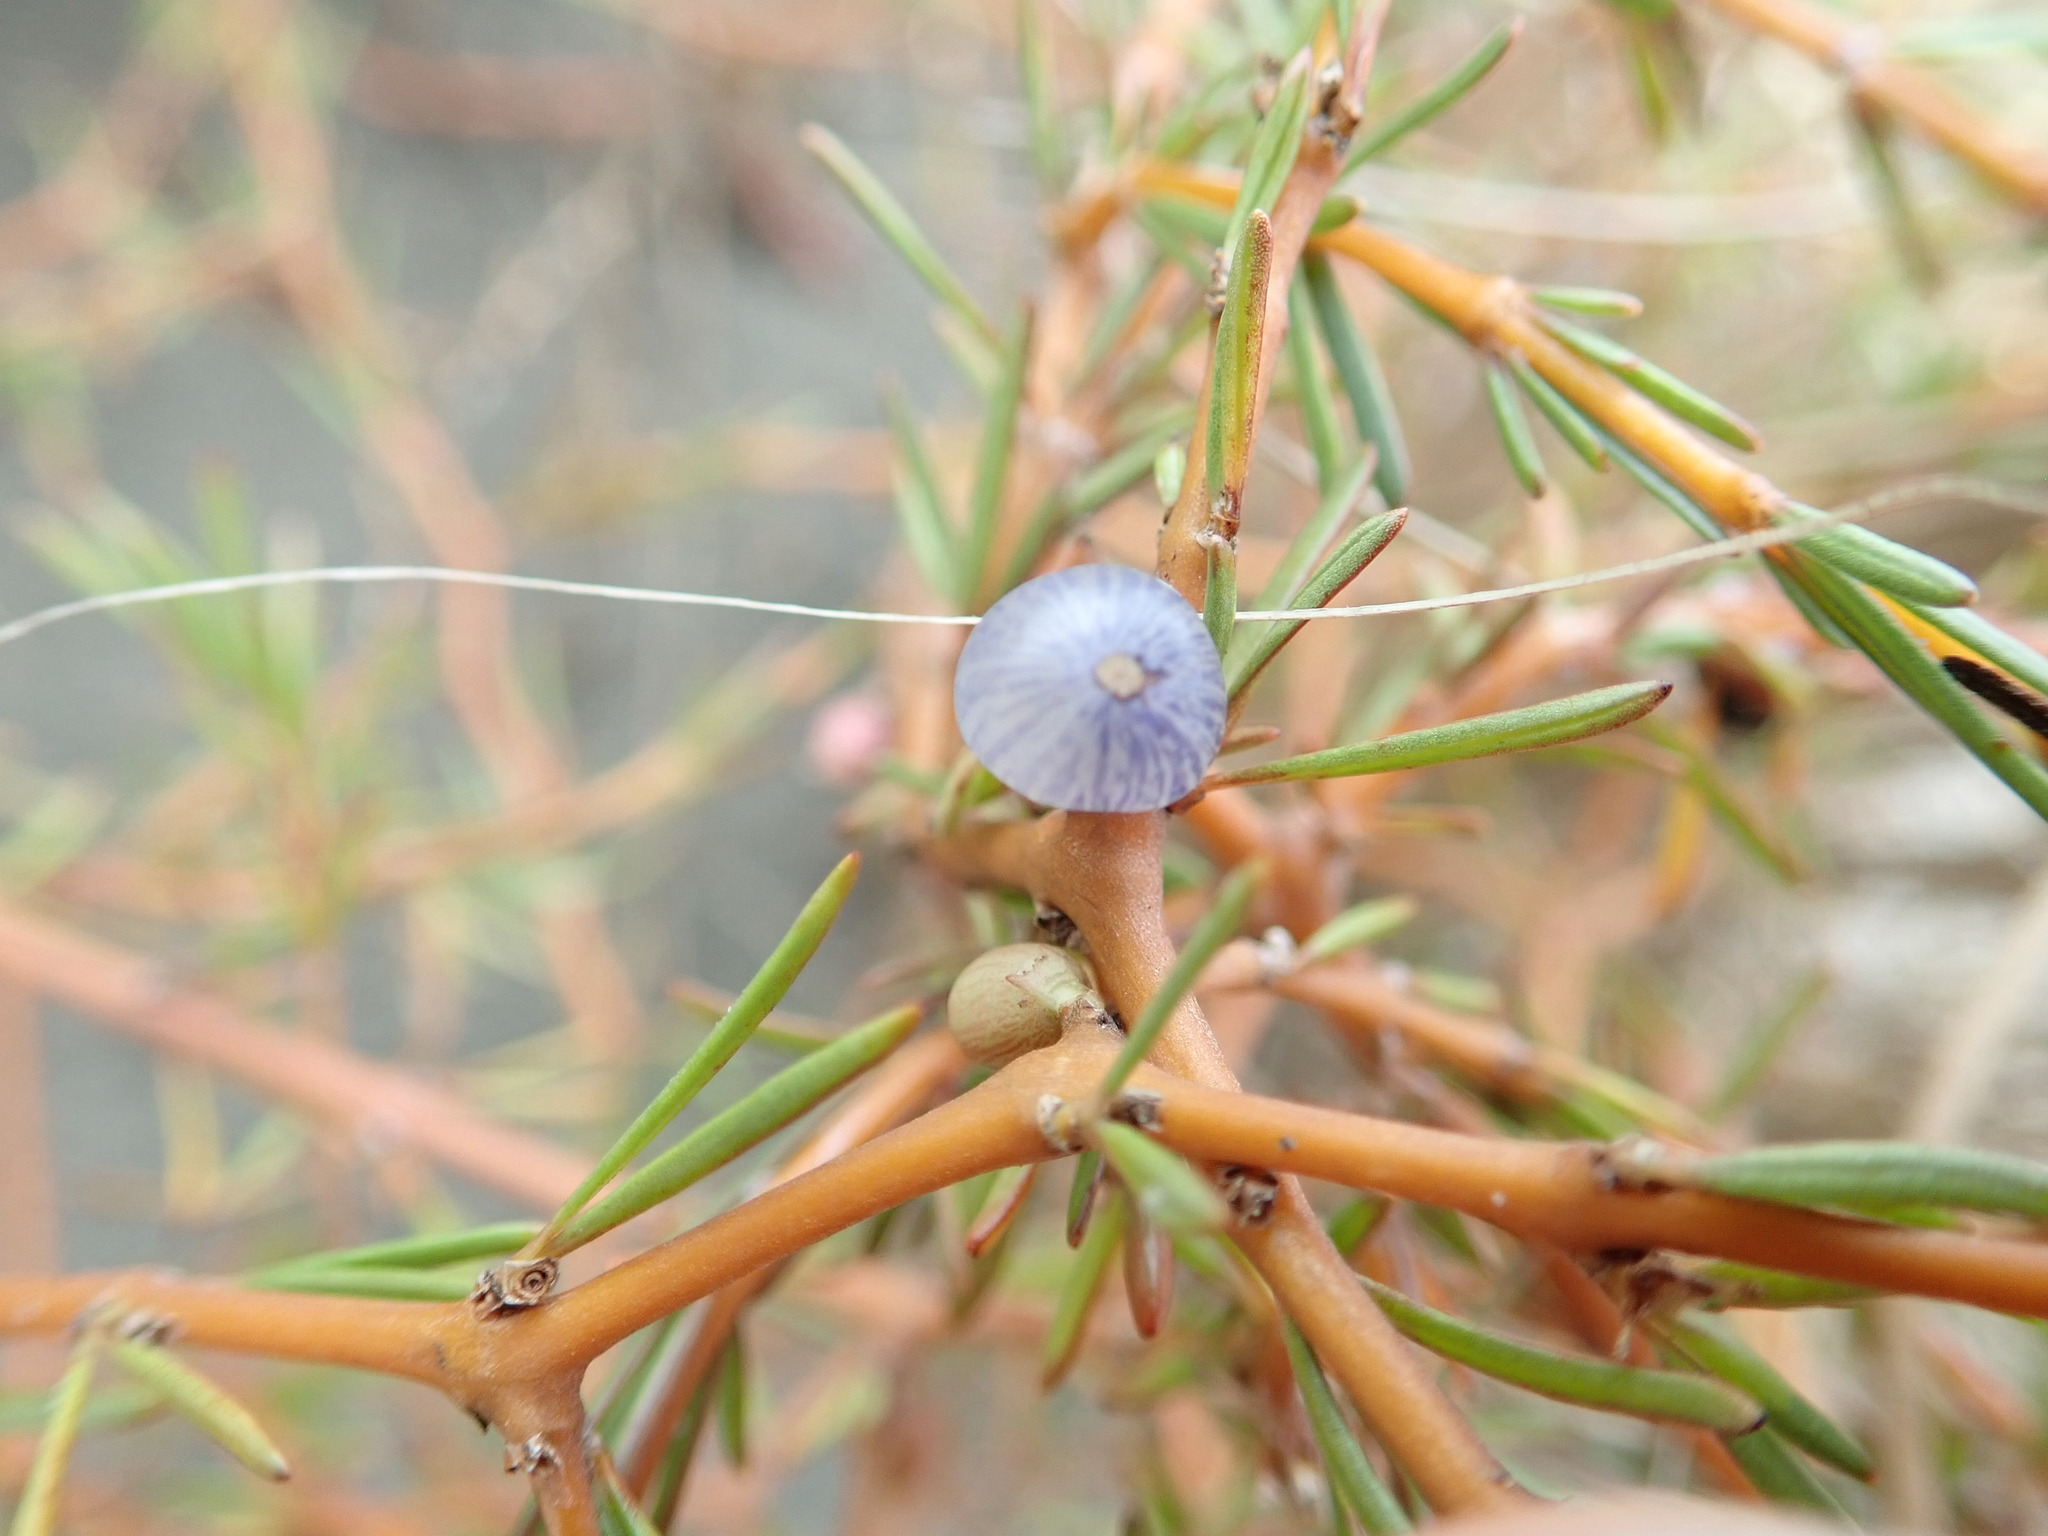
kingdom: Plantae
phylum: Tracheophyta
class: Magnoliopsida
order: Gentianales
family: Rubiaceae
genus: Coprosma
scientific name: Coprosma acerosa
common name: Sand coprosma
